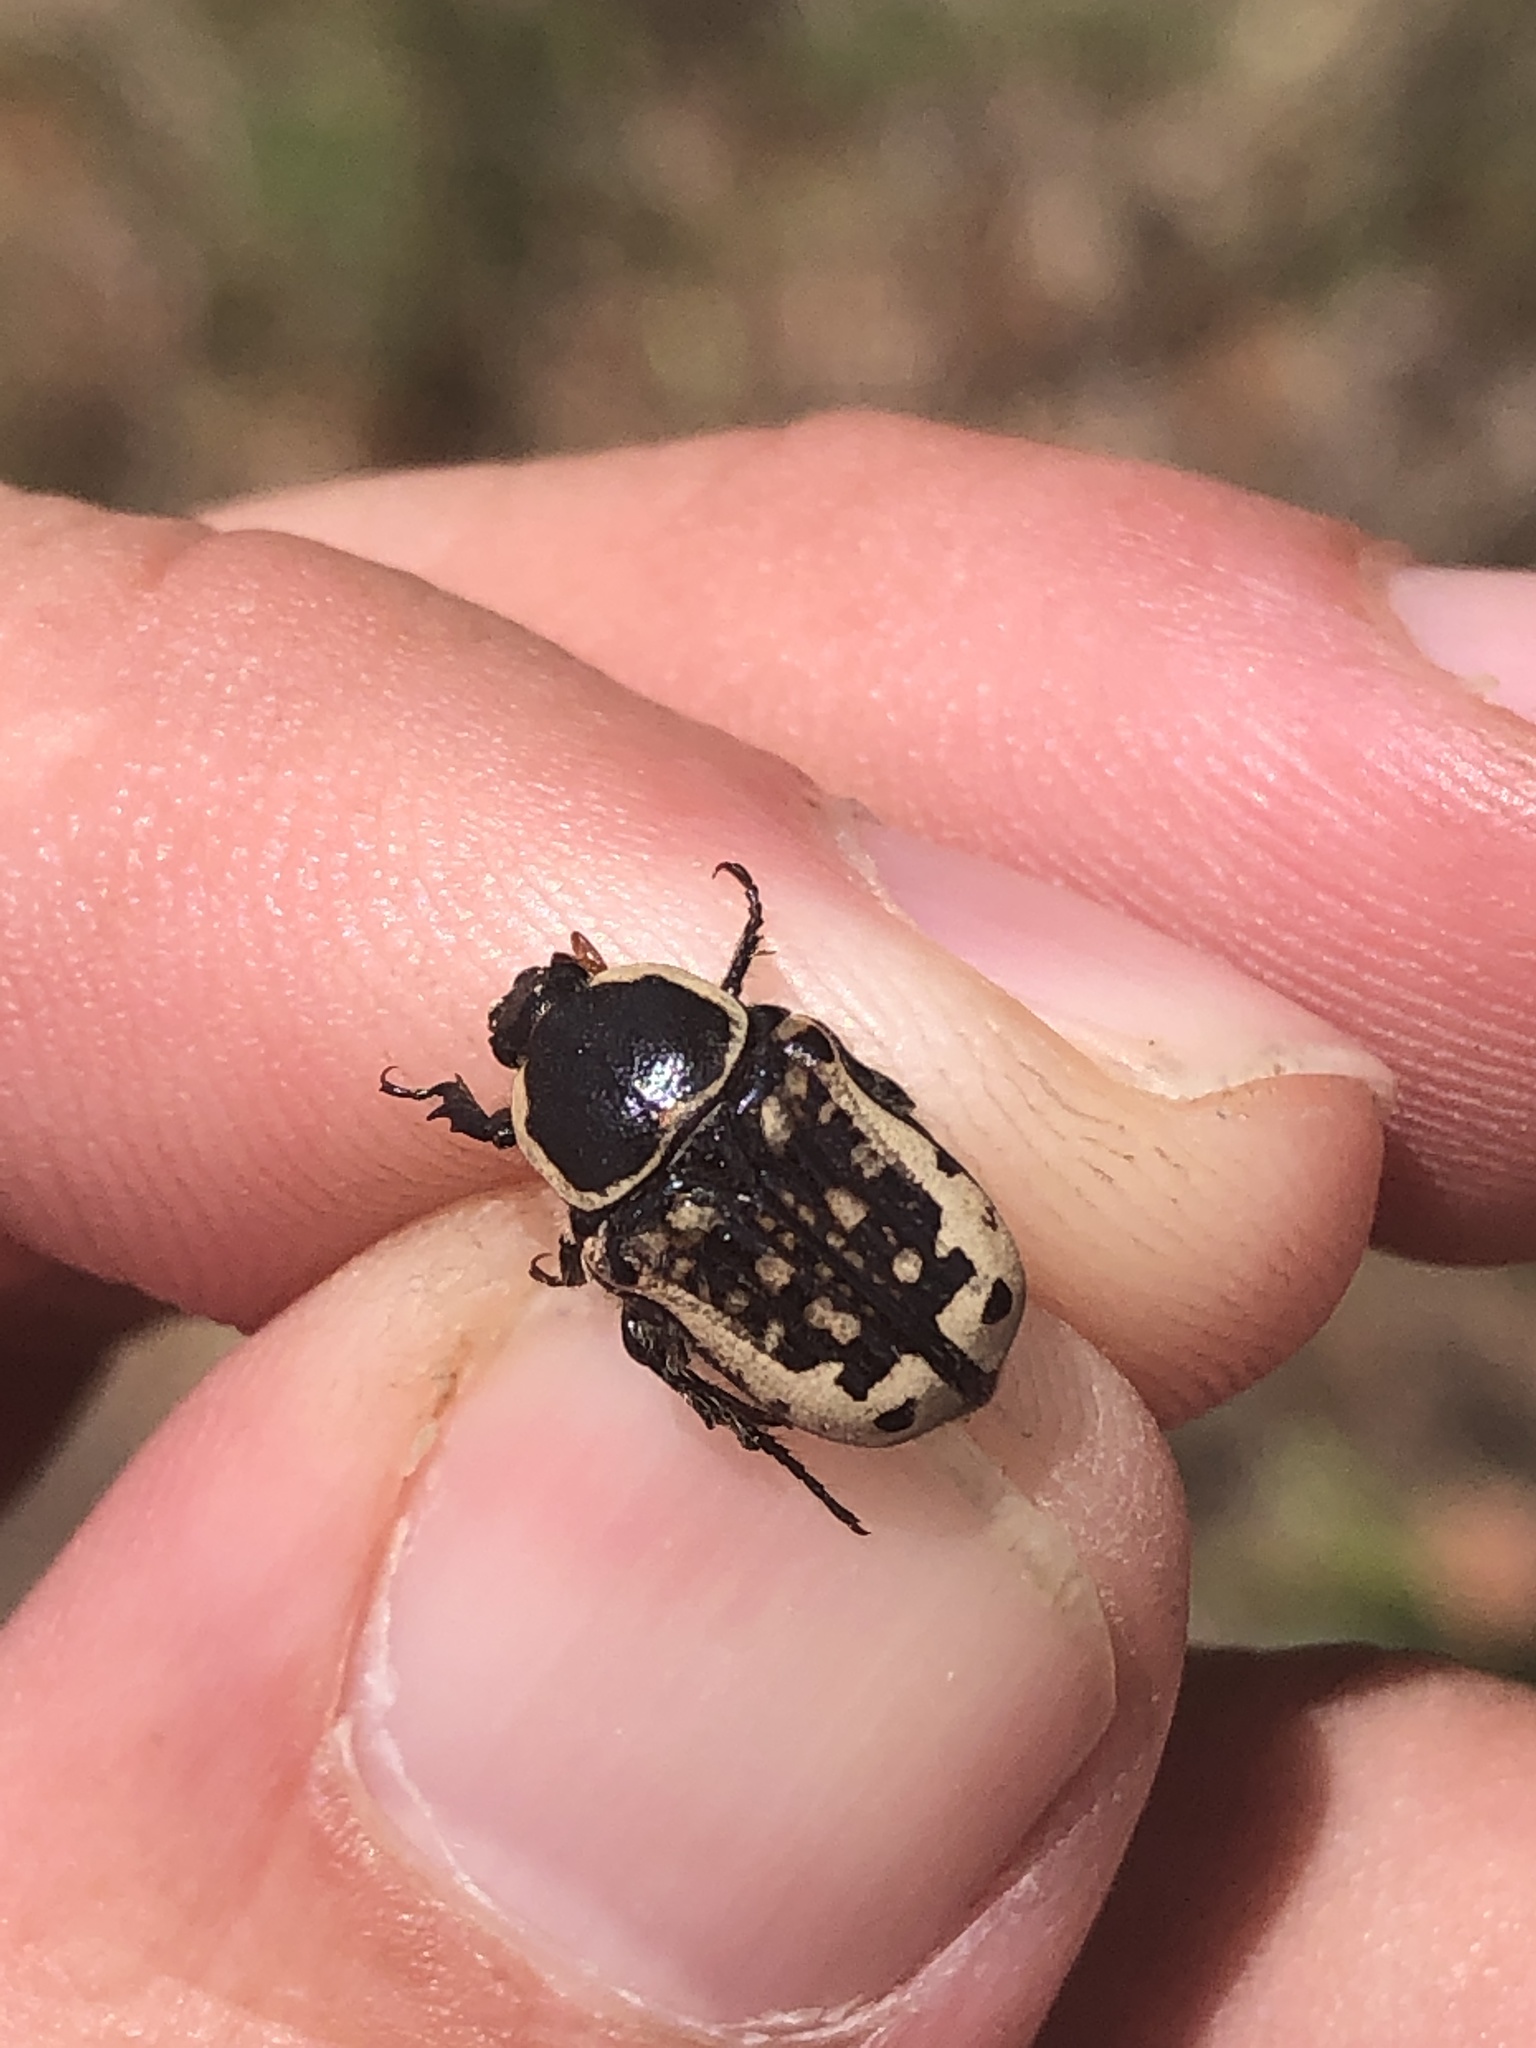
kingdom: Animalia
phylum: Arthropoda
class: Insecta
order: Coleoptera
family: Scarabaeidae
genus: Euphoria
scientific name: Euphoria kernii
